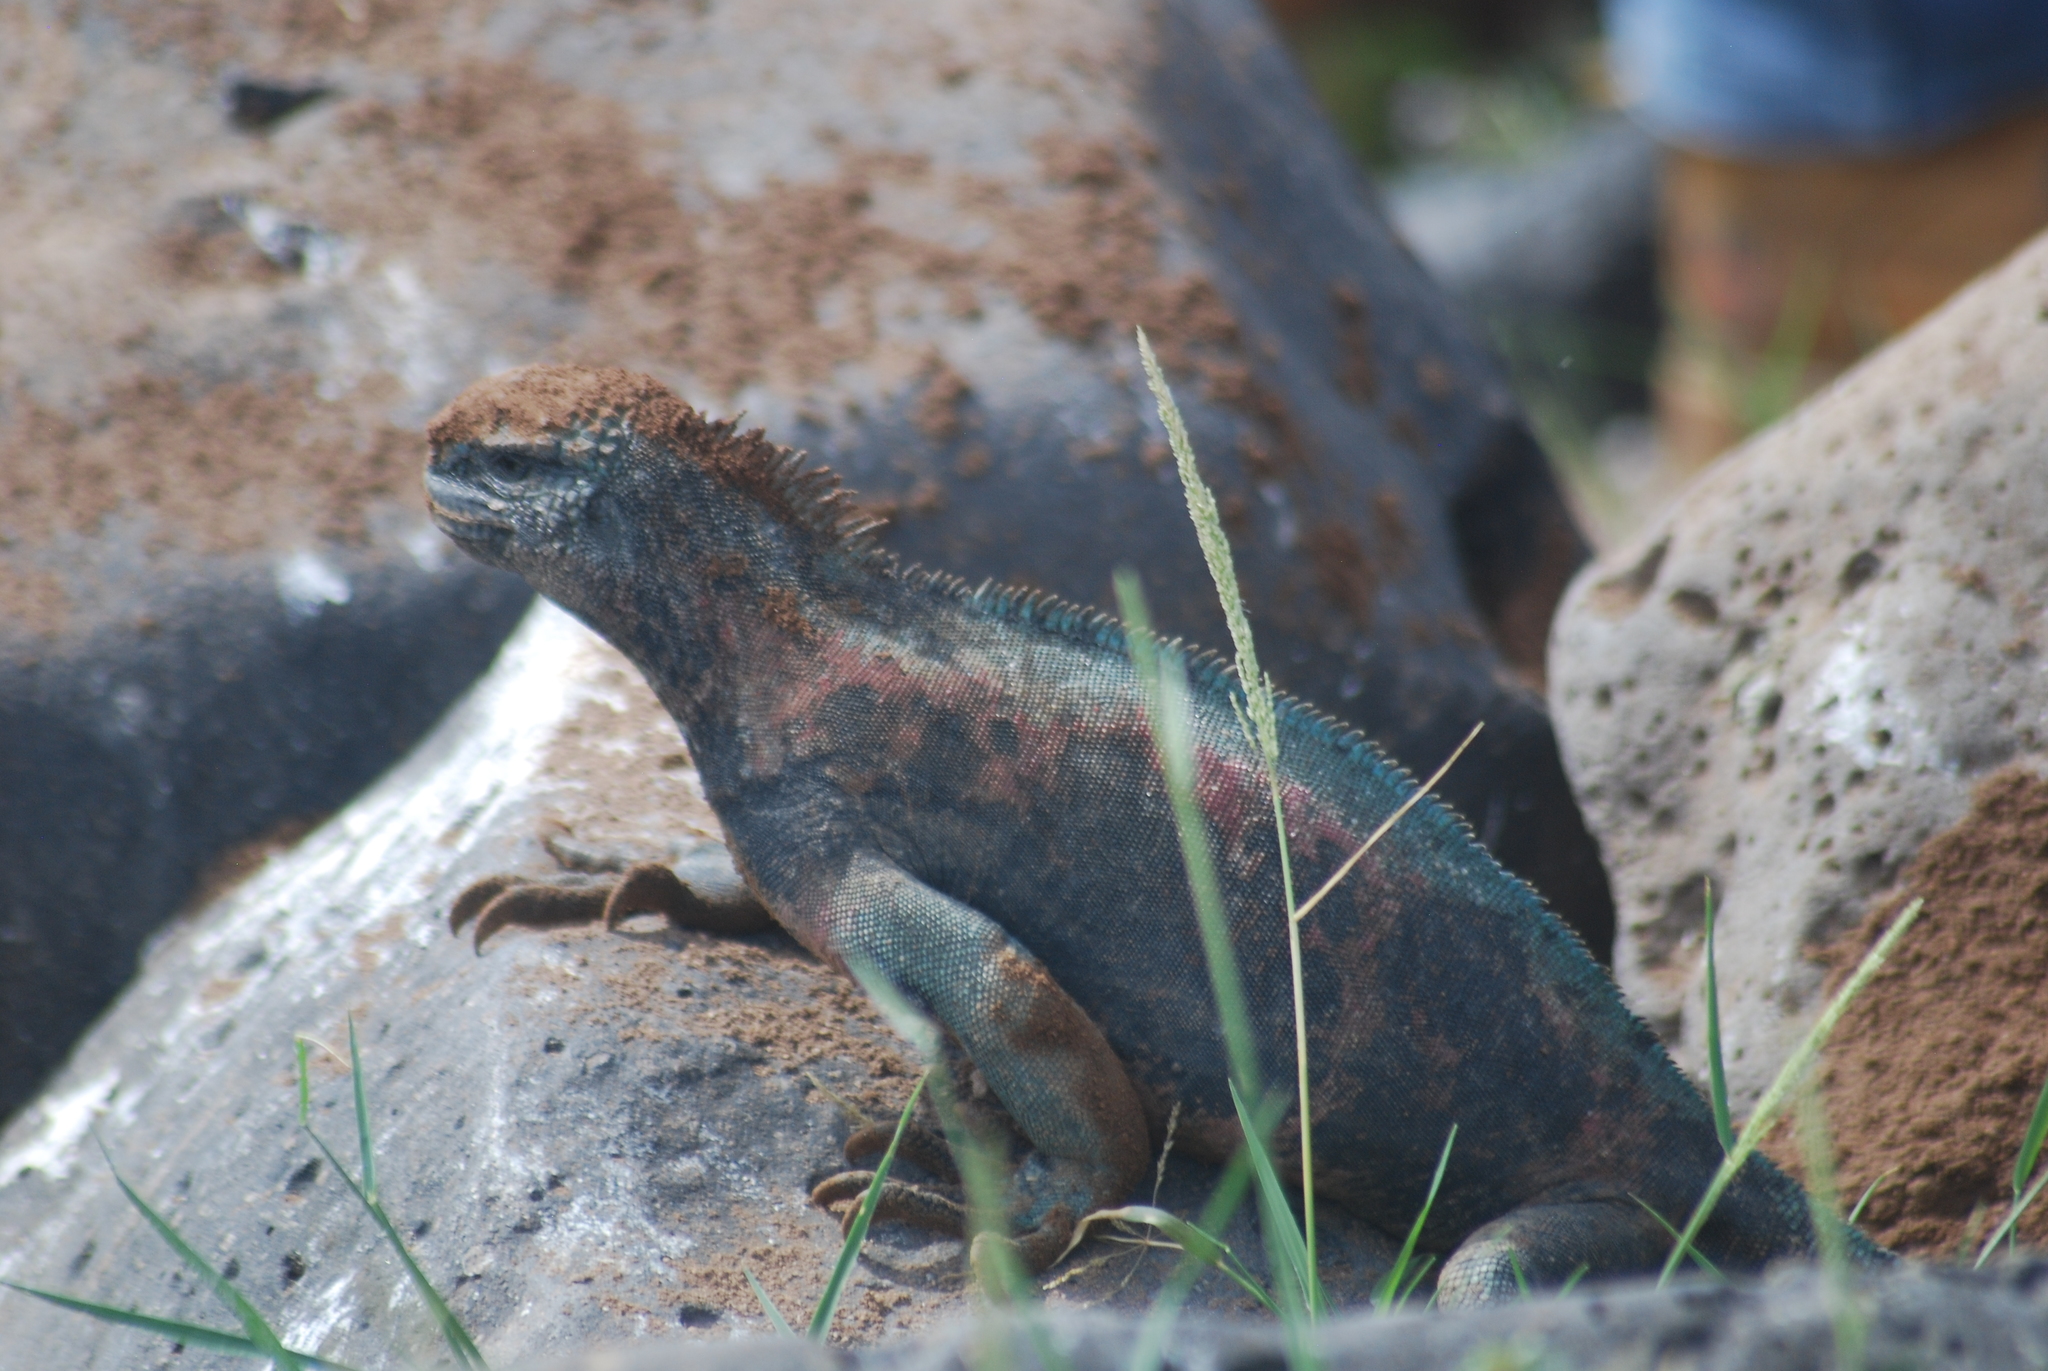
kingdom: Animalia
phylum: Chordata
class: Squamata
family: Iguanidae
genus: Amblyrhynchus
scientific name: Amblyrhynchus cristatus
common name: Marine iguana
